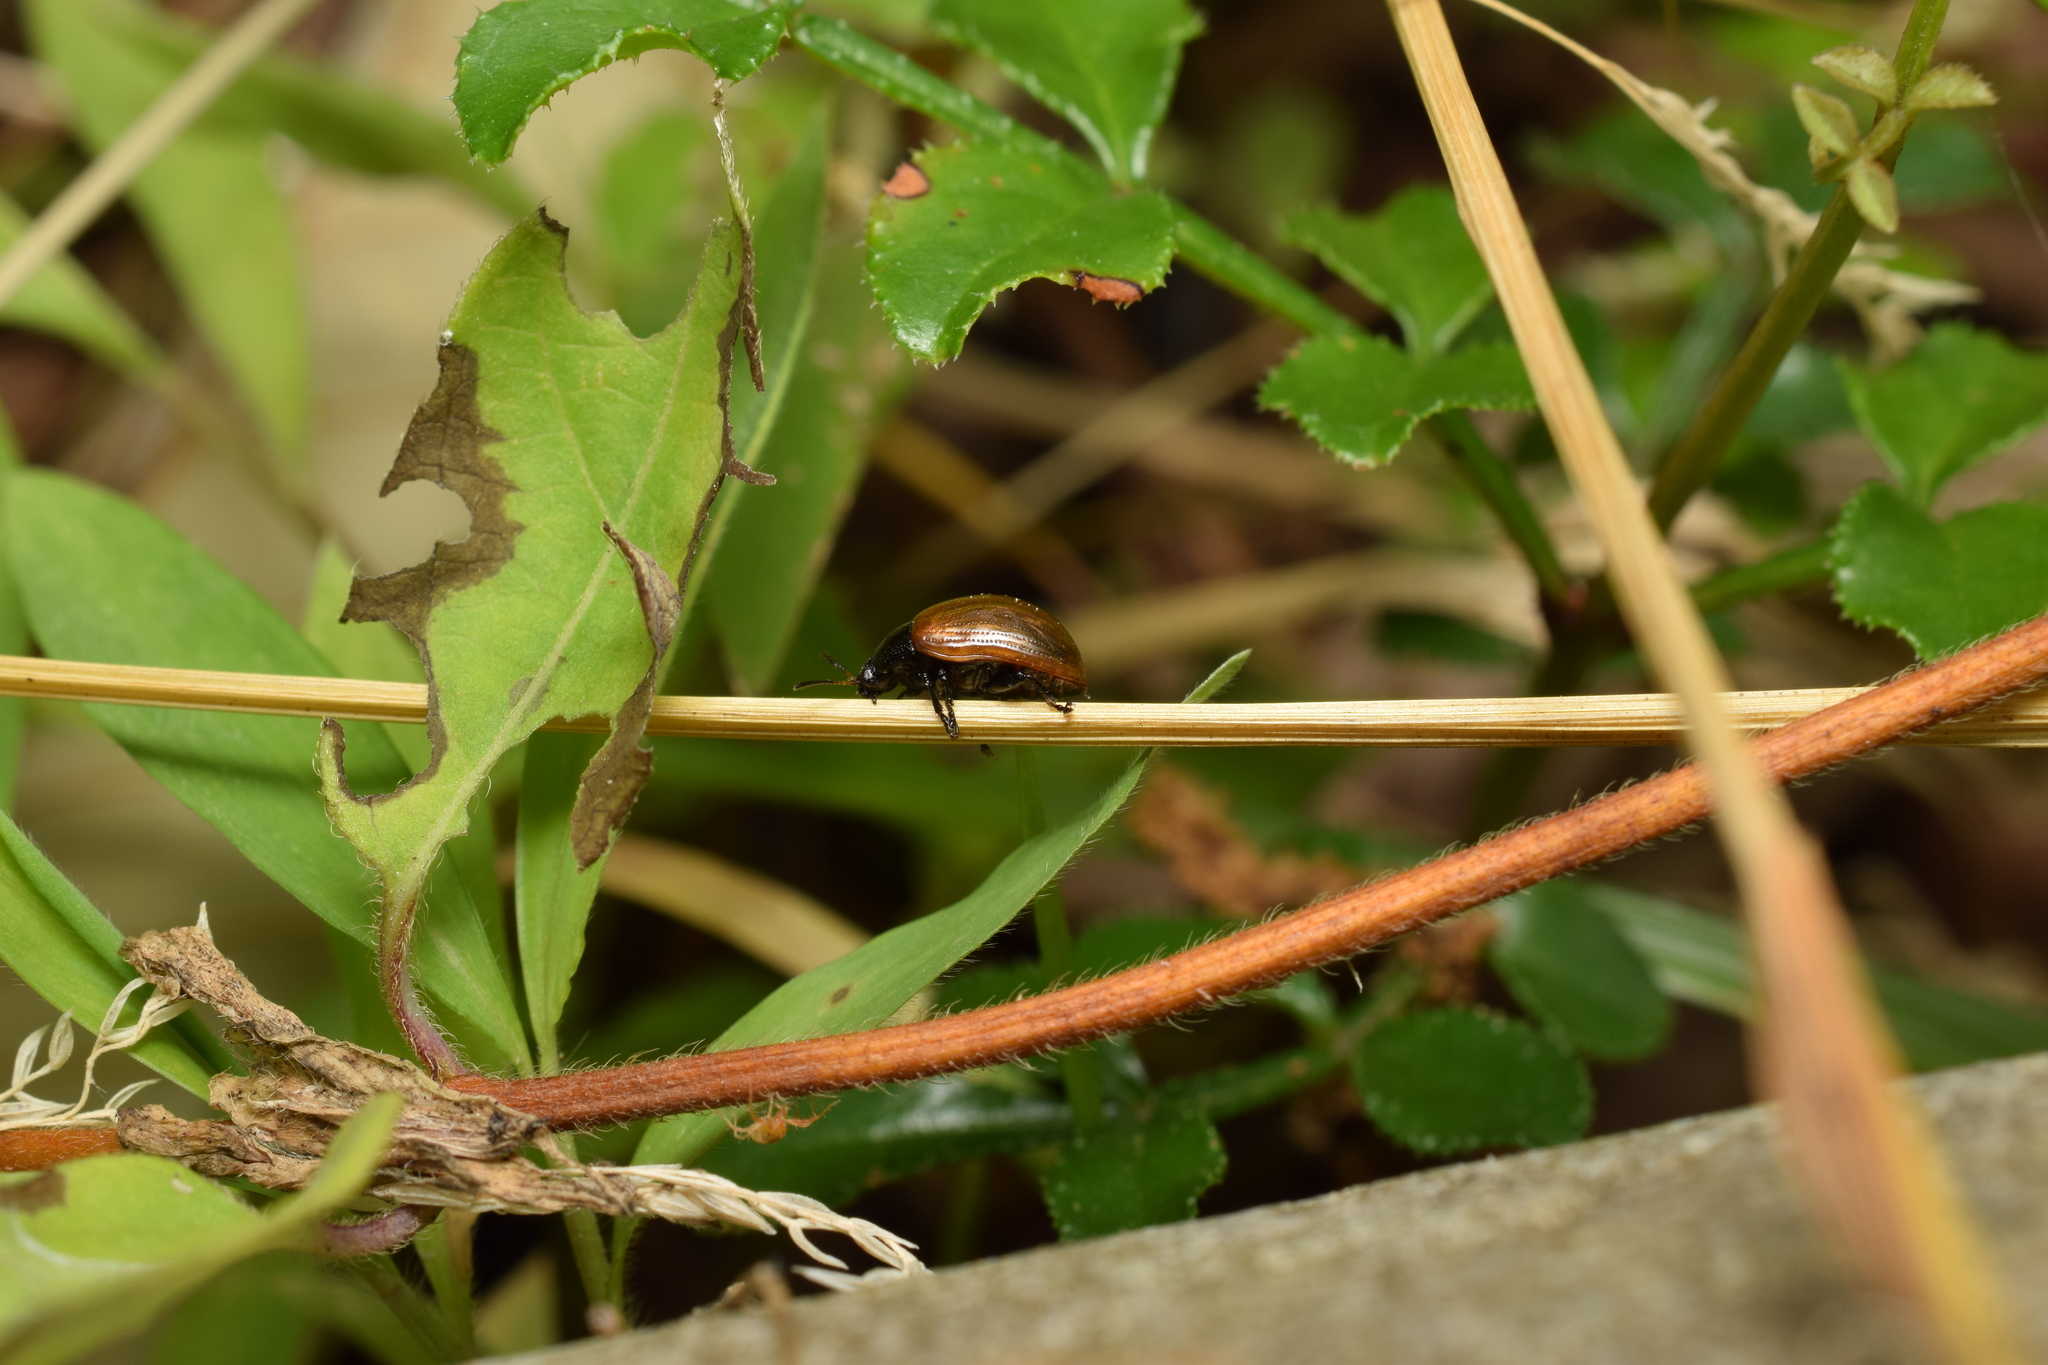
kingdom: Animalia
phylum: Arthropoda
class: Insecta
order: Coleoptera
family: Chrysomelidae
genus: Gonioctena
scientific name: Gonioctena
